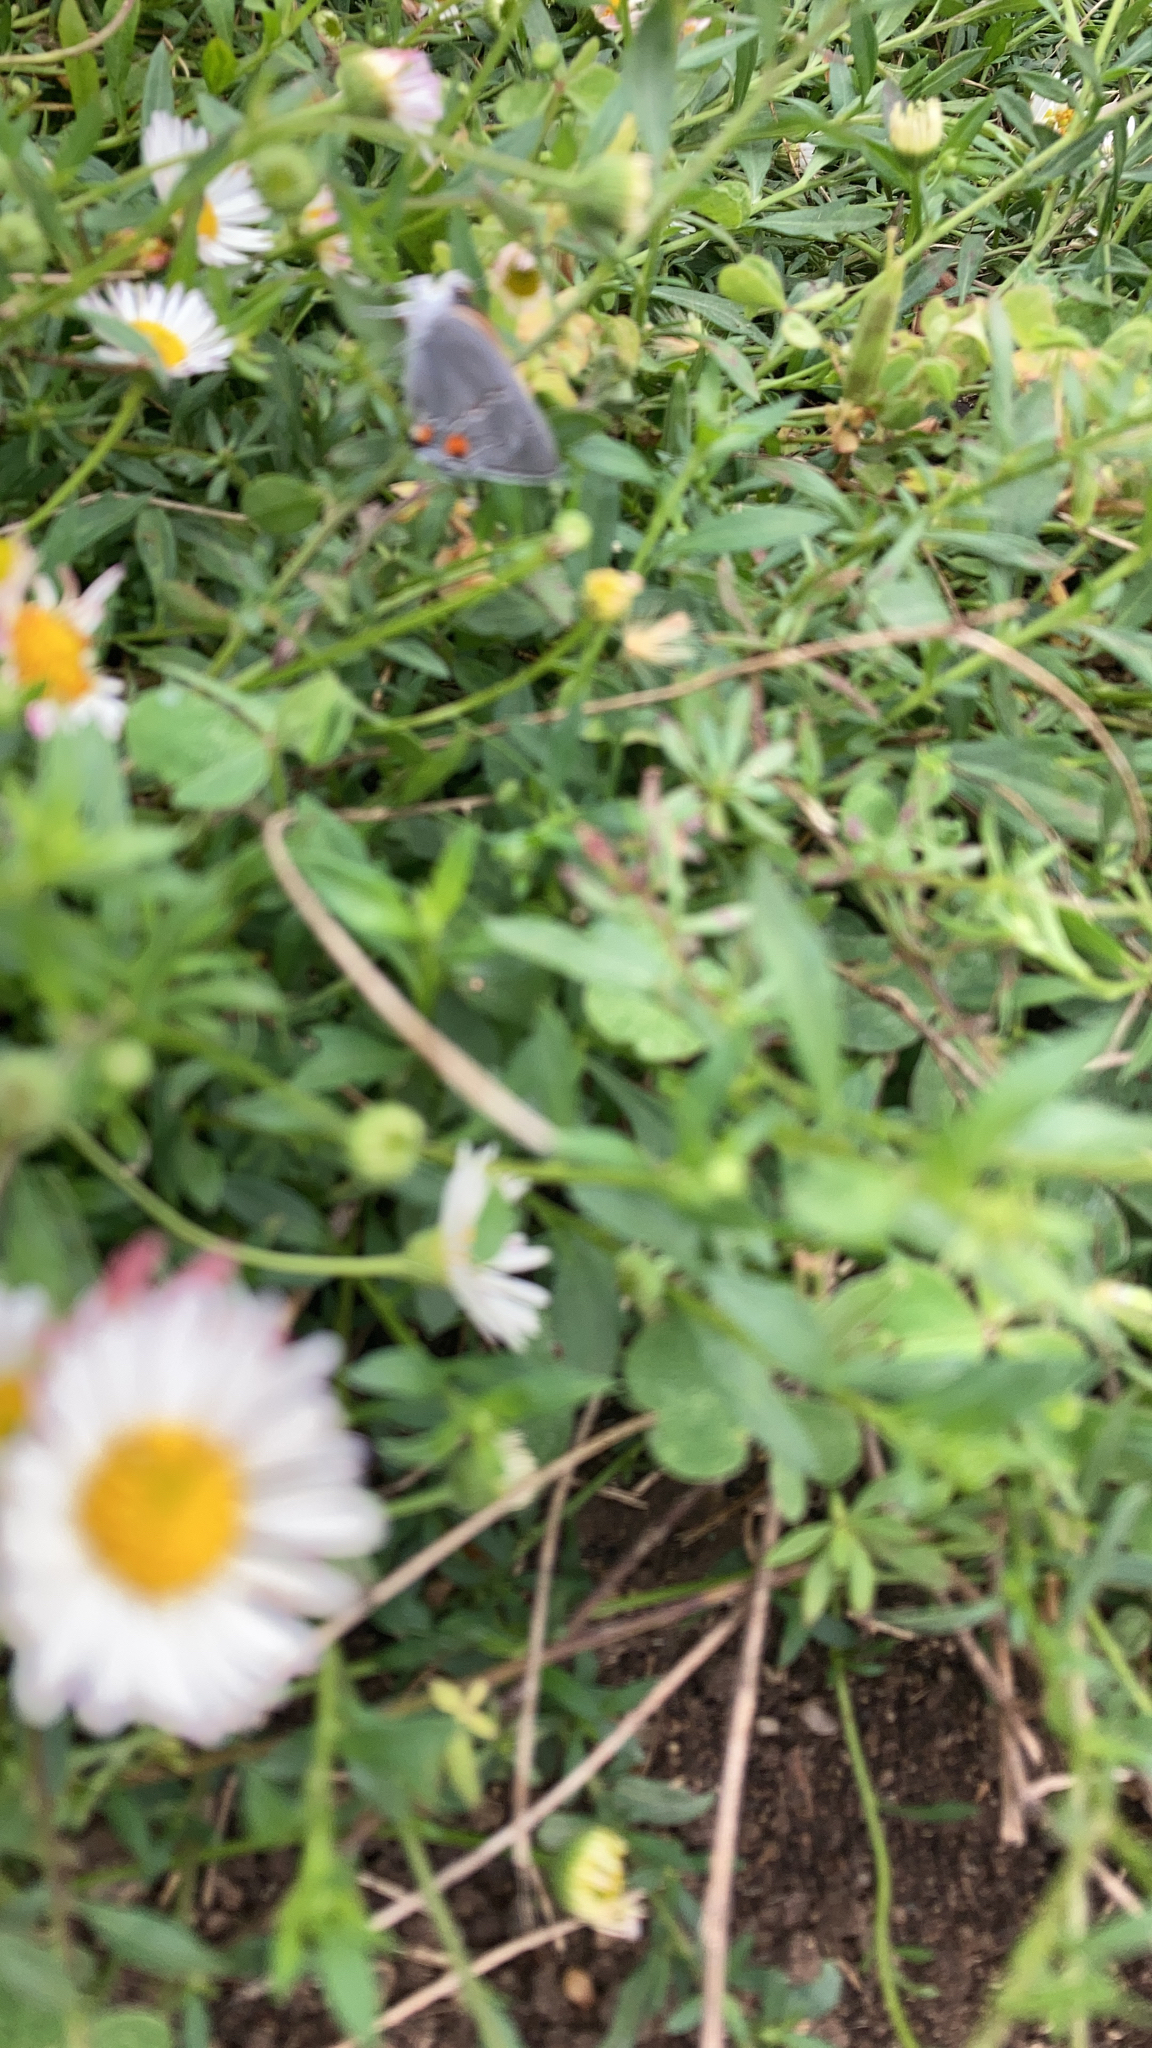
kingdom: Animalia
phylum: Arthropoda
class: Insecta
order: Lepidoptera
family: Lycaenidae
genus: Strymon
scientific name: Strymon melinus
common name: Gray hairstreak
